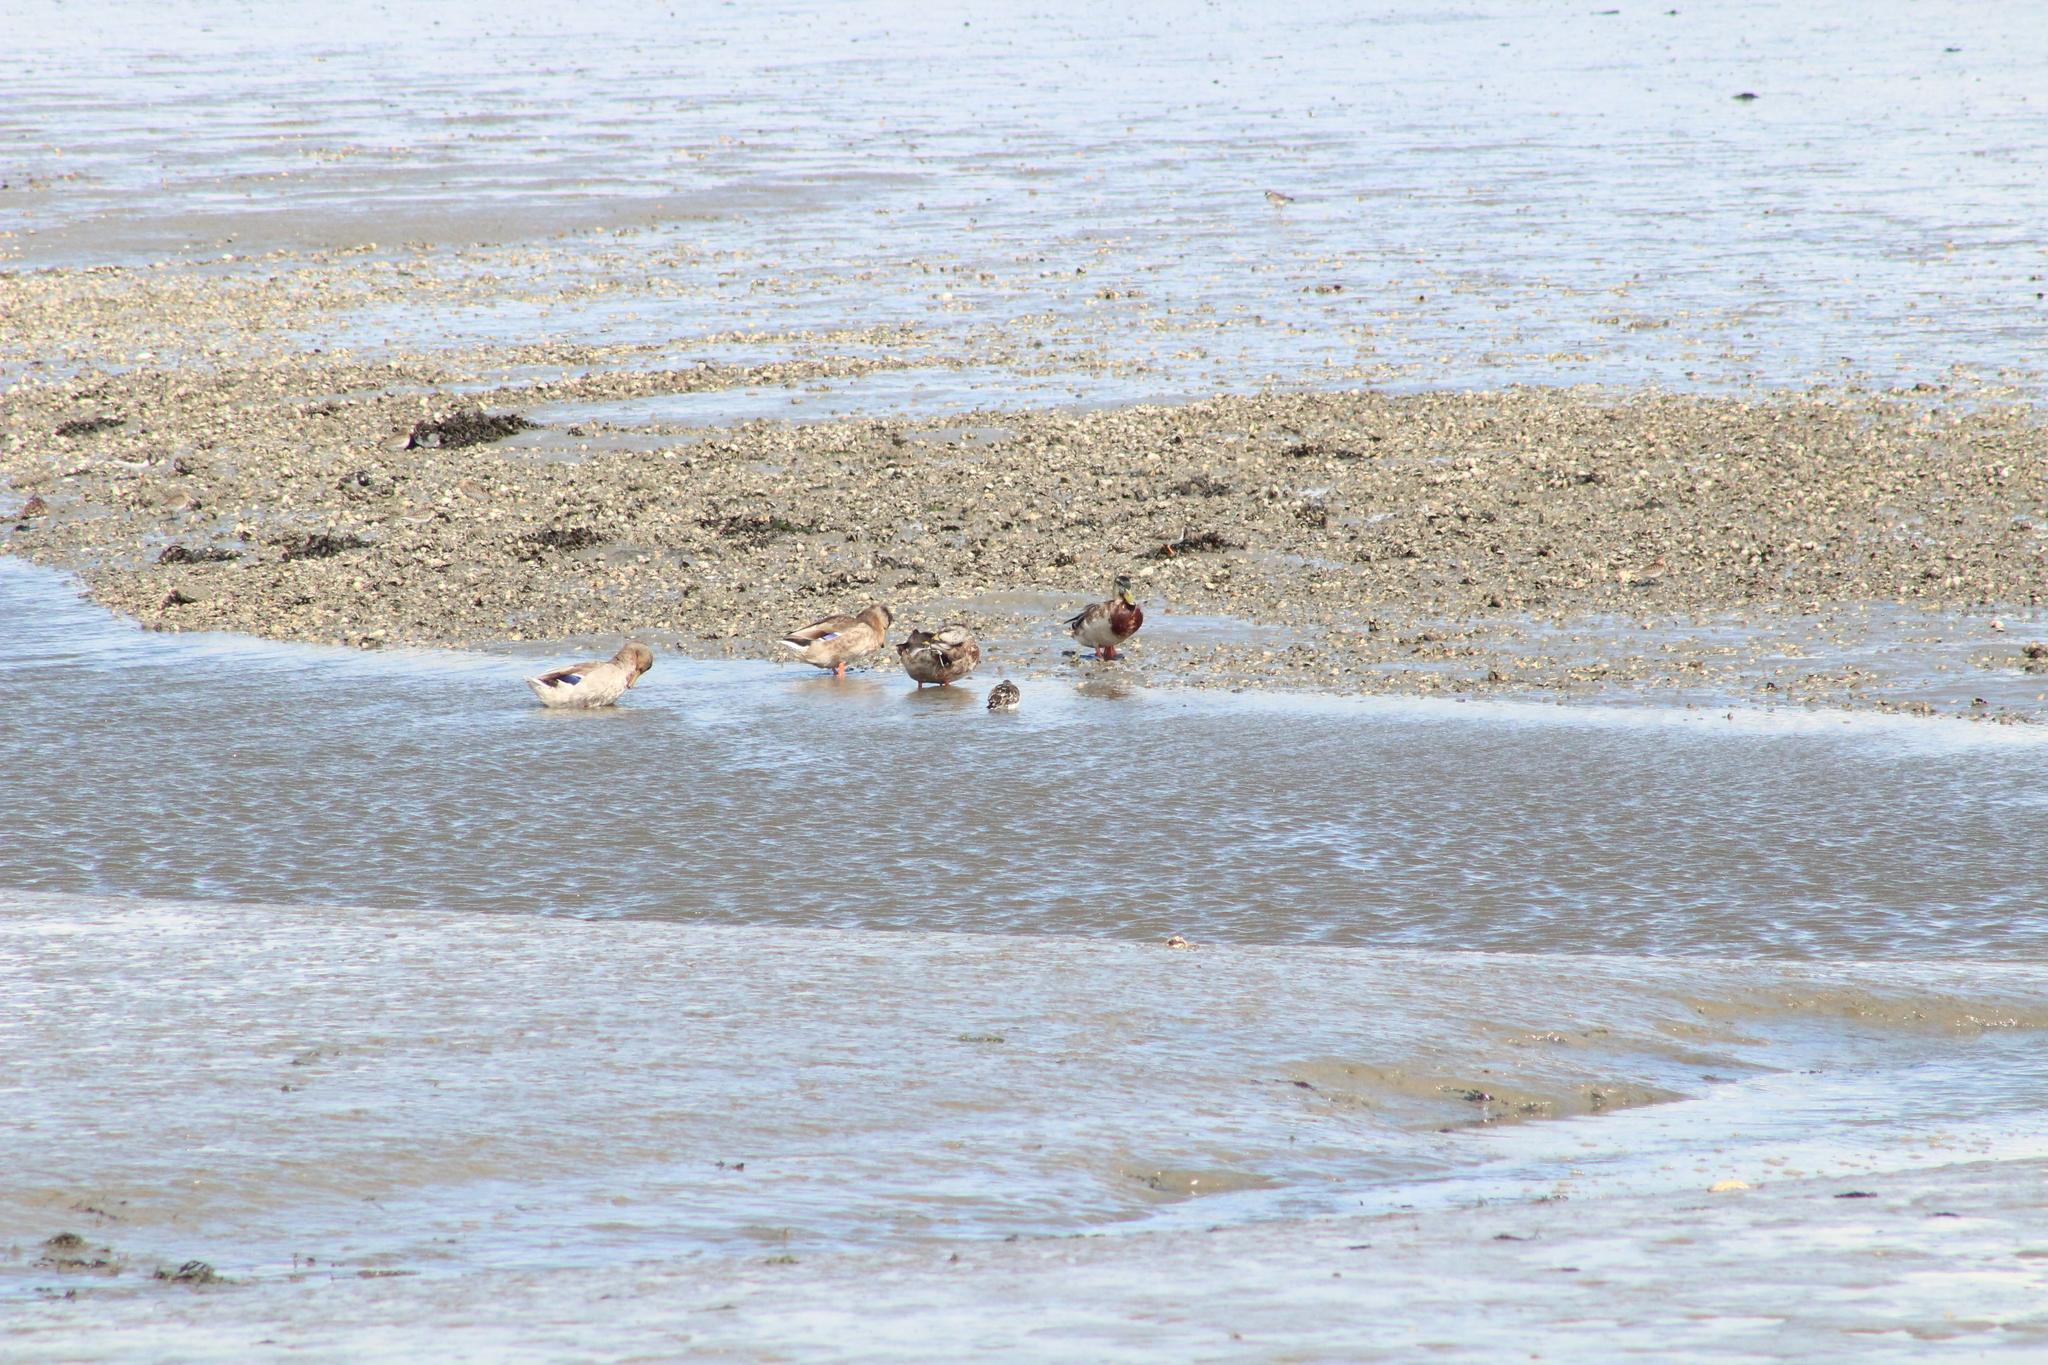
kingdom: Animalia
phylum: Chordata
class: Aves
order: Anseriformes
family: Anatidae
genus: Anas
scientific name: Anas platyrhynchos
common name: Mallard
